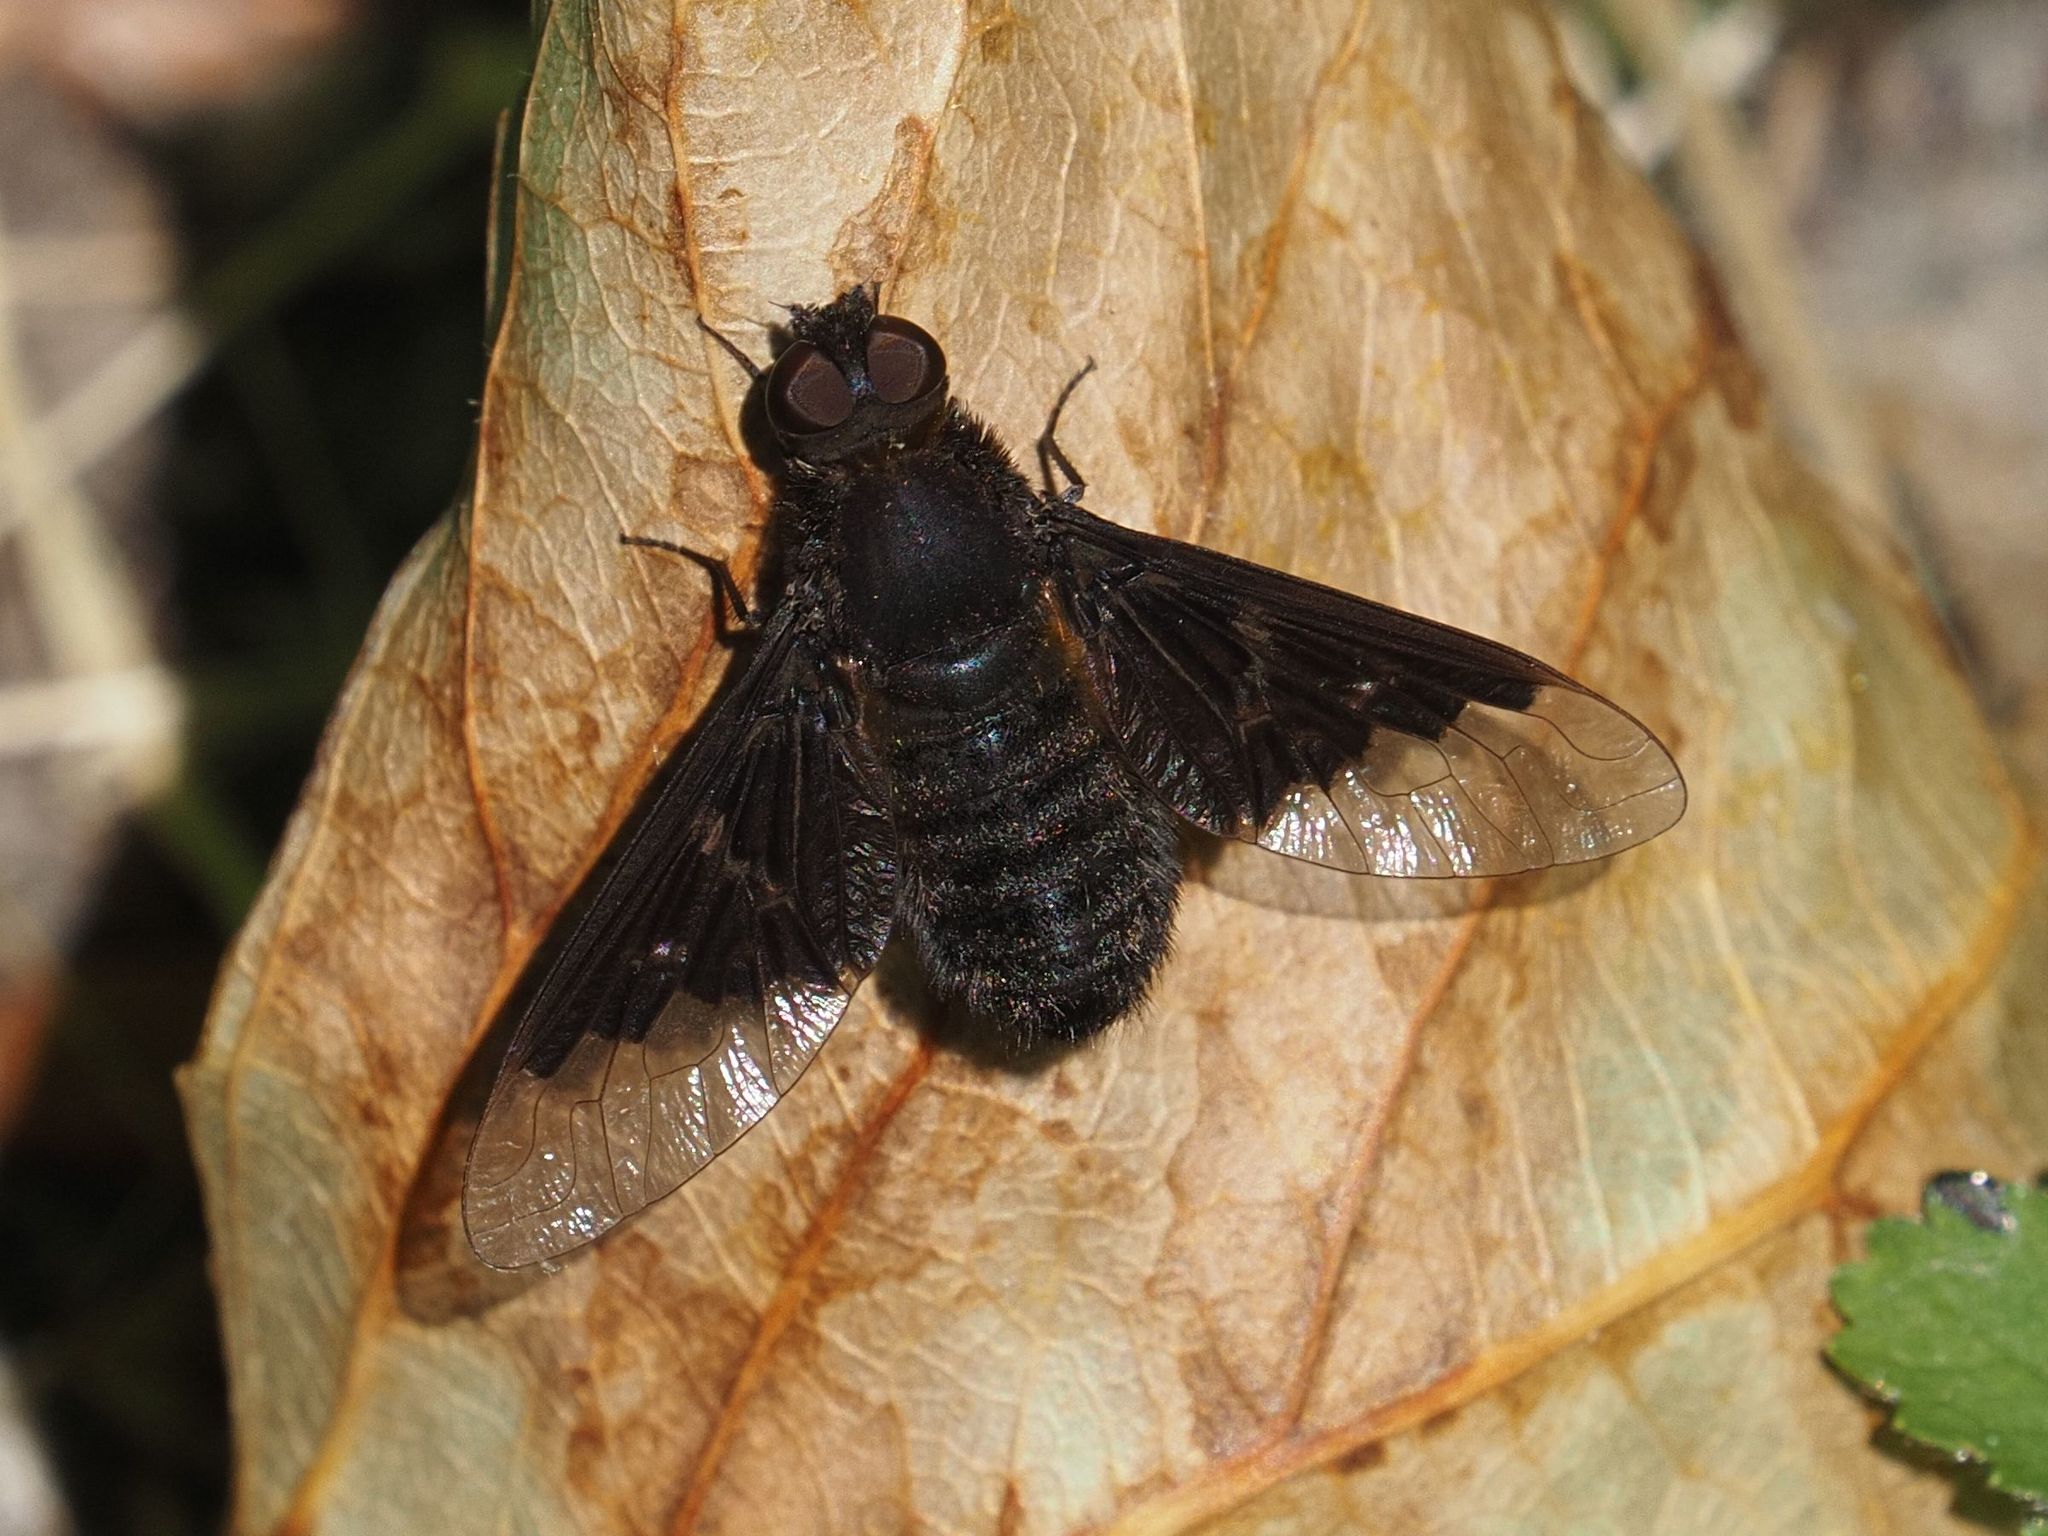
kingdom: Animalia
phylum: Arthropoda
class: Insecta
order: Diptera
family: Bombyliidae
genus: Hemipenthes
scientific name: Hemipenthes morio
